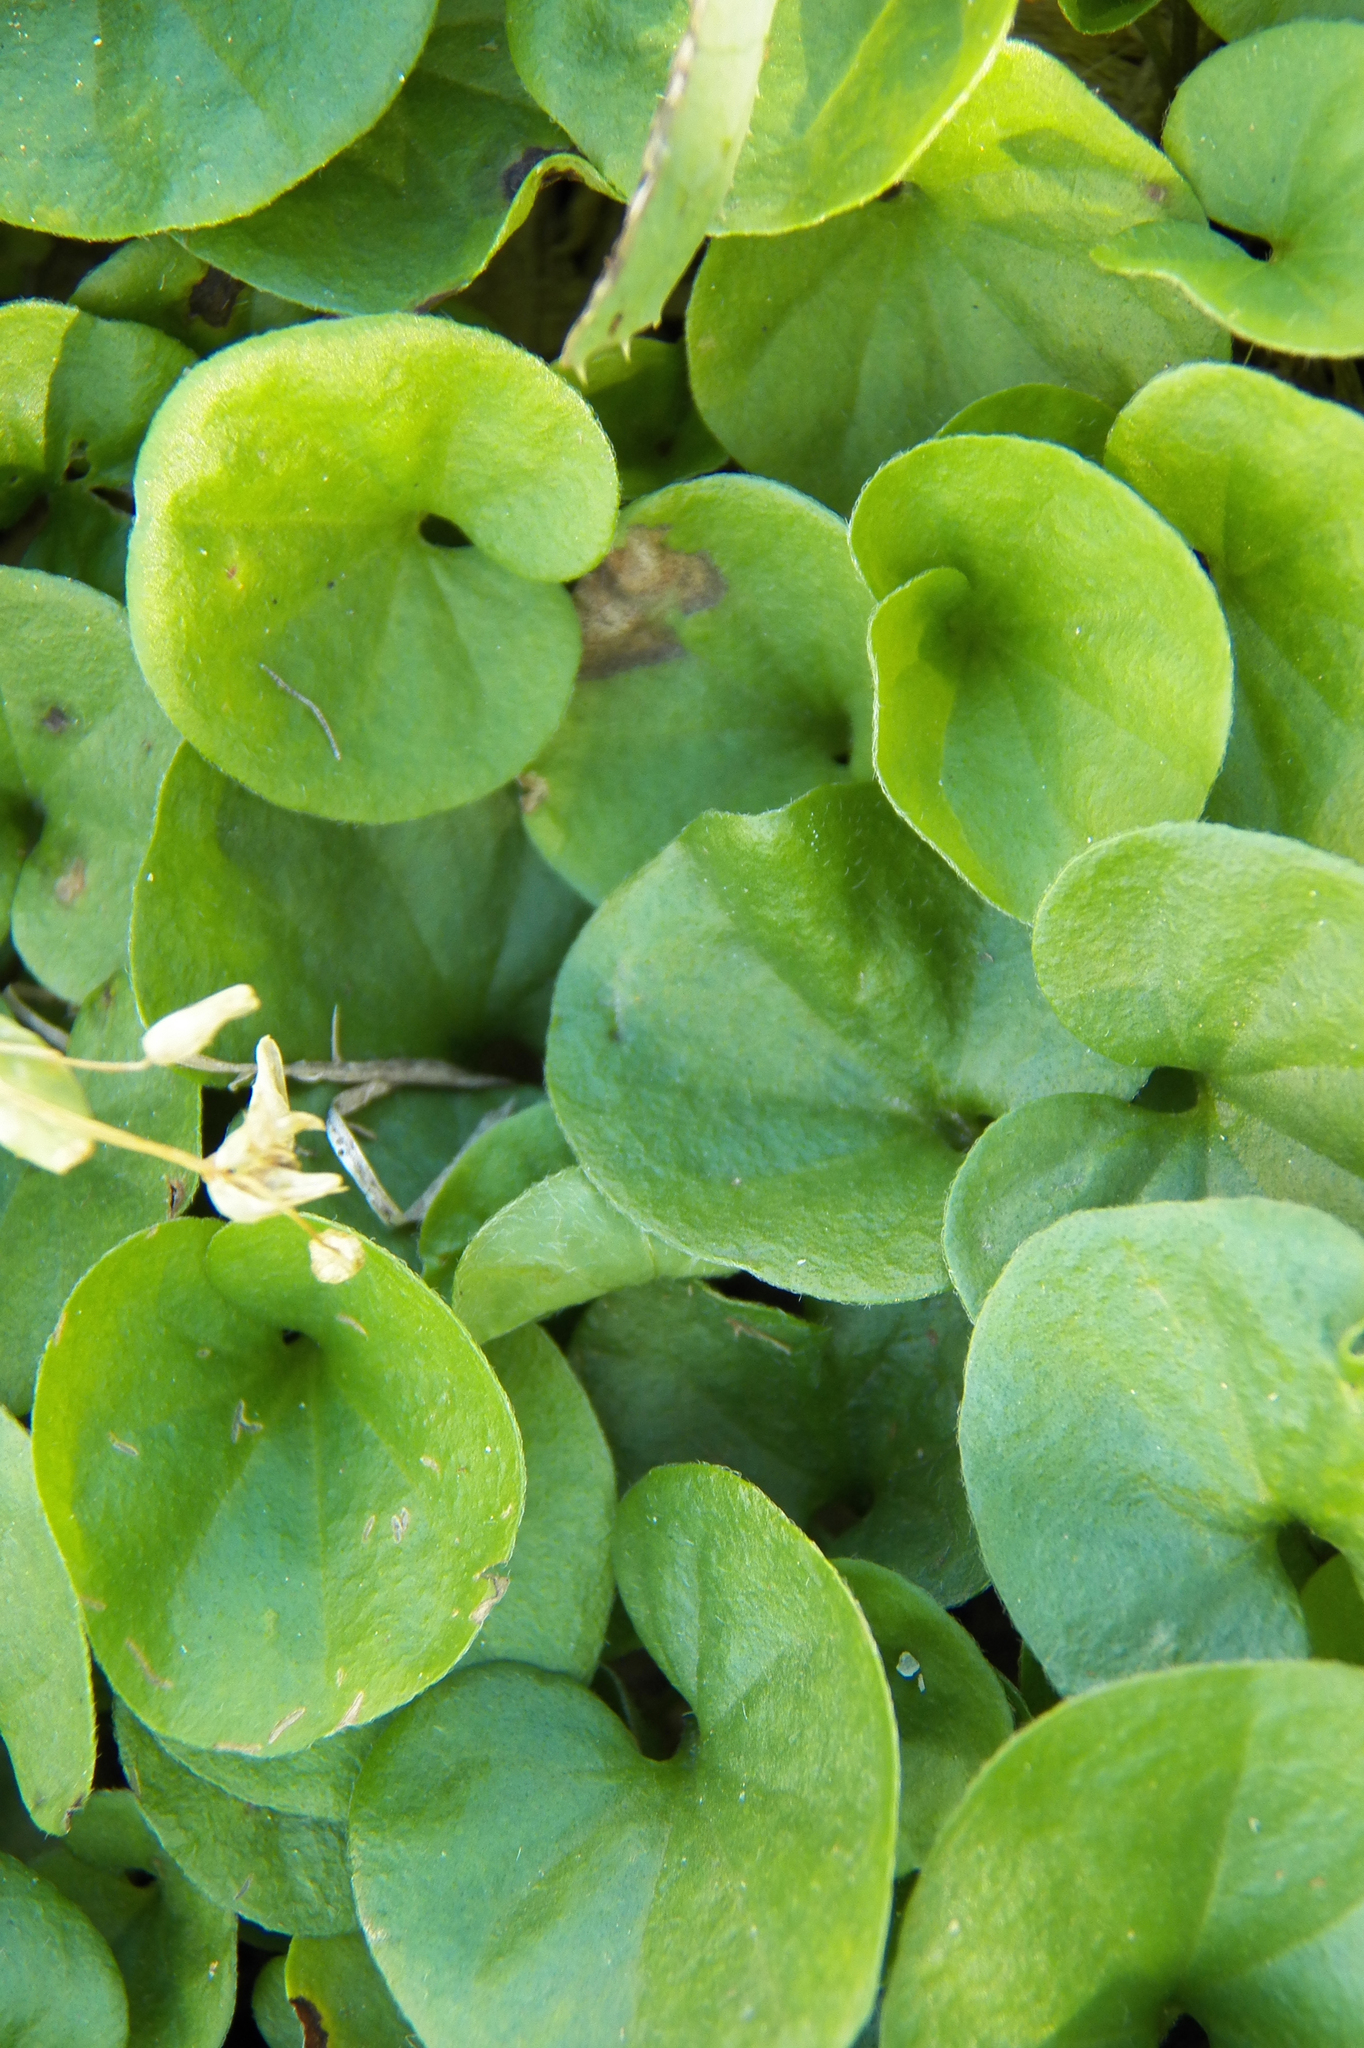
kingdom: Plantae
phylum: Tracheophyta
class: Magnoliopsida
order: Solanales
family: Convolvulaceae
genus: Dichondra
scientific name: Dichondra carolinensis
